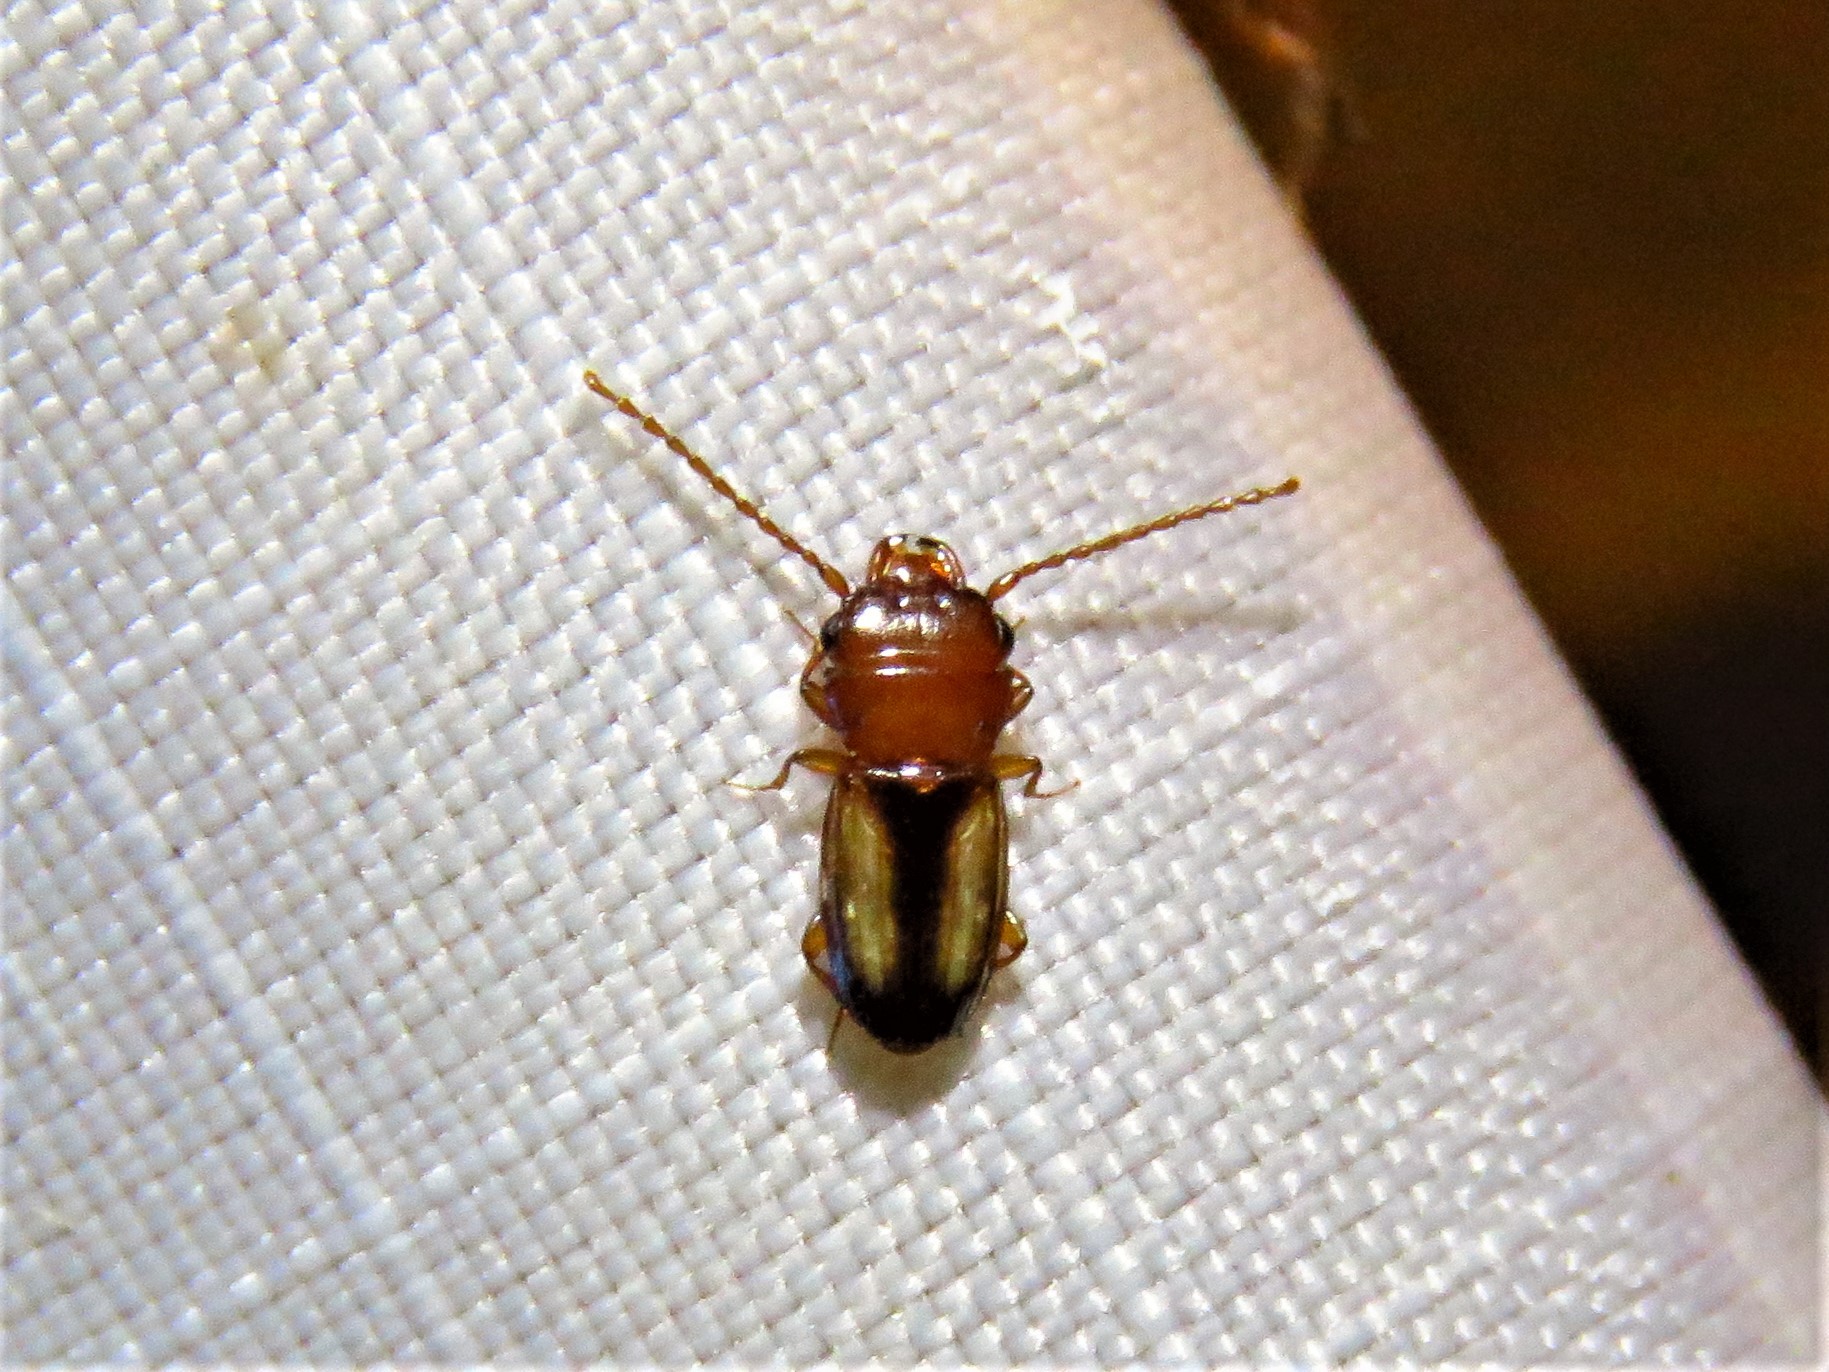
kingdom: Animalia
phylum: Arthropoda
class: Insecta
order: Coleoptera
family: Laemophloeidae
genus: Laemophloeus
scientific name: Laemophloeus terminalis
